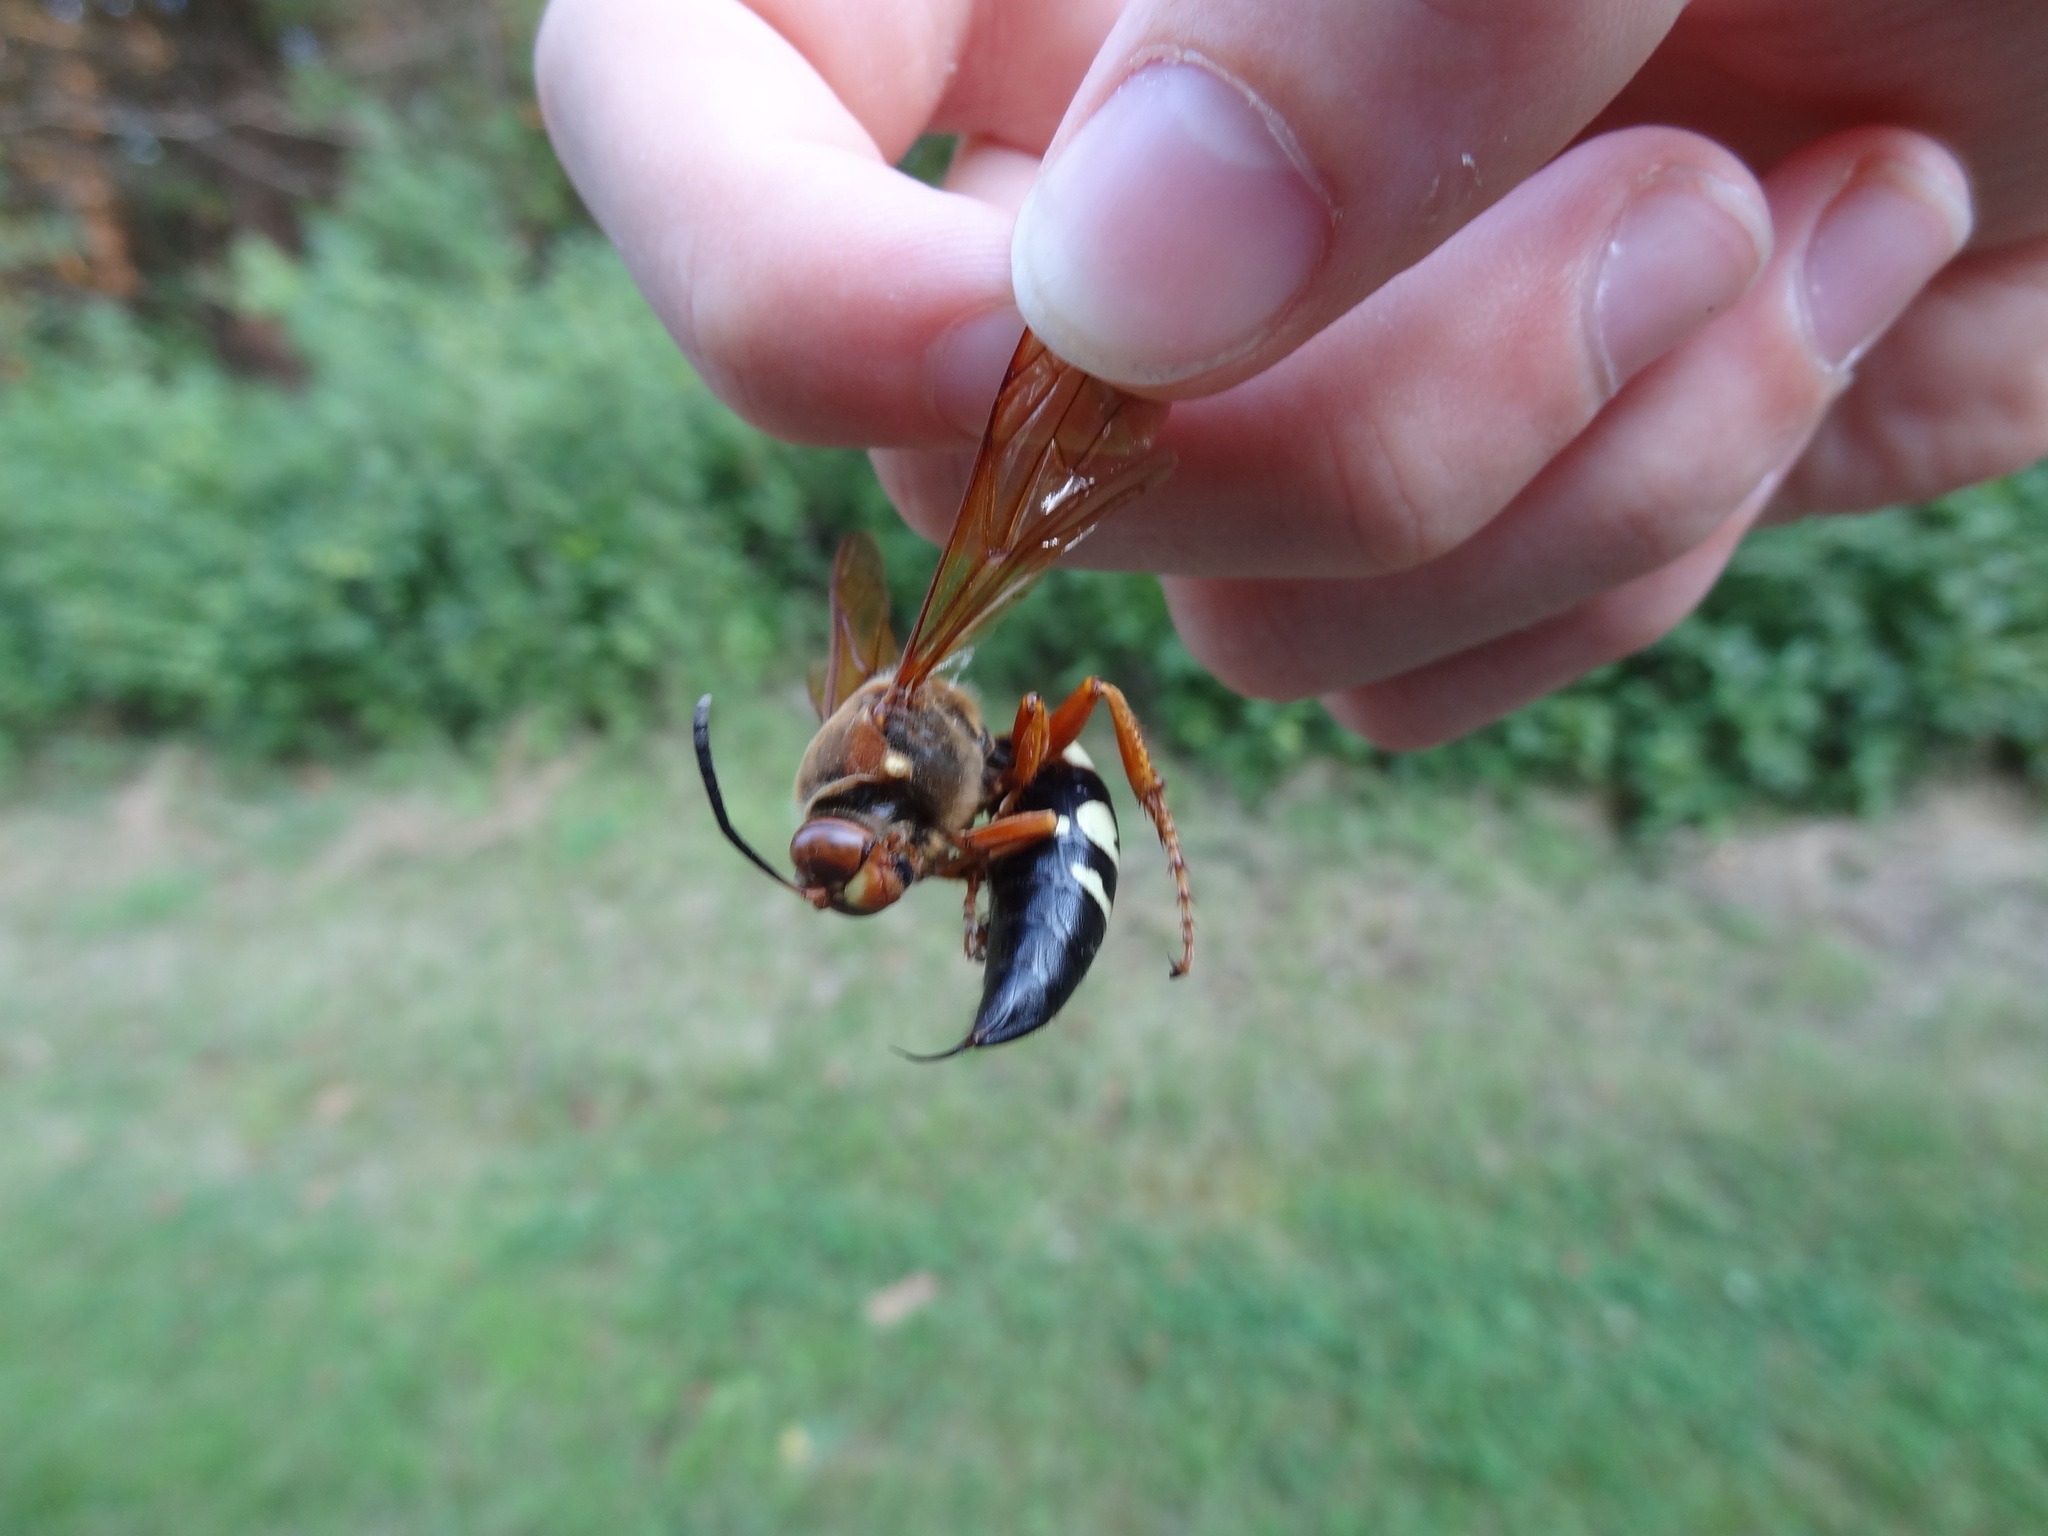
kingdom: Animalia
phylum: Arthropoda
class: Insecta
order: Hymenoptera
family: Crabronidae
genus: Sphecius
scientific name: Sphecius speciosus
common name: Cicada killer
